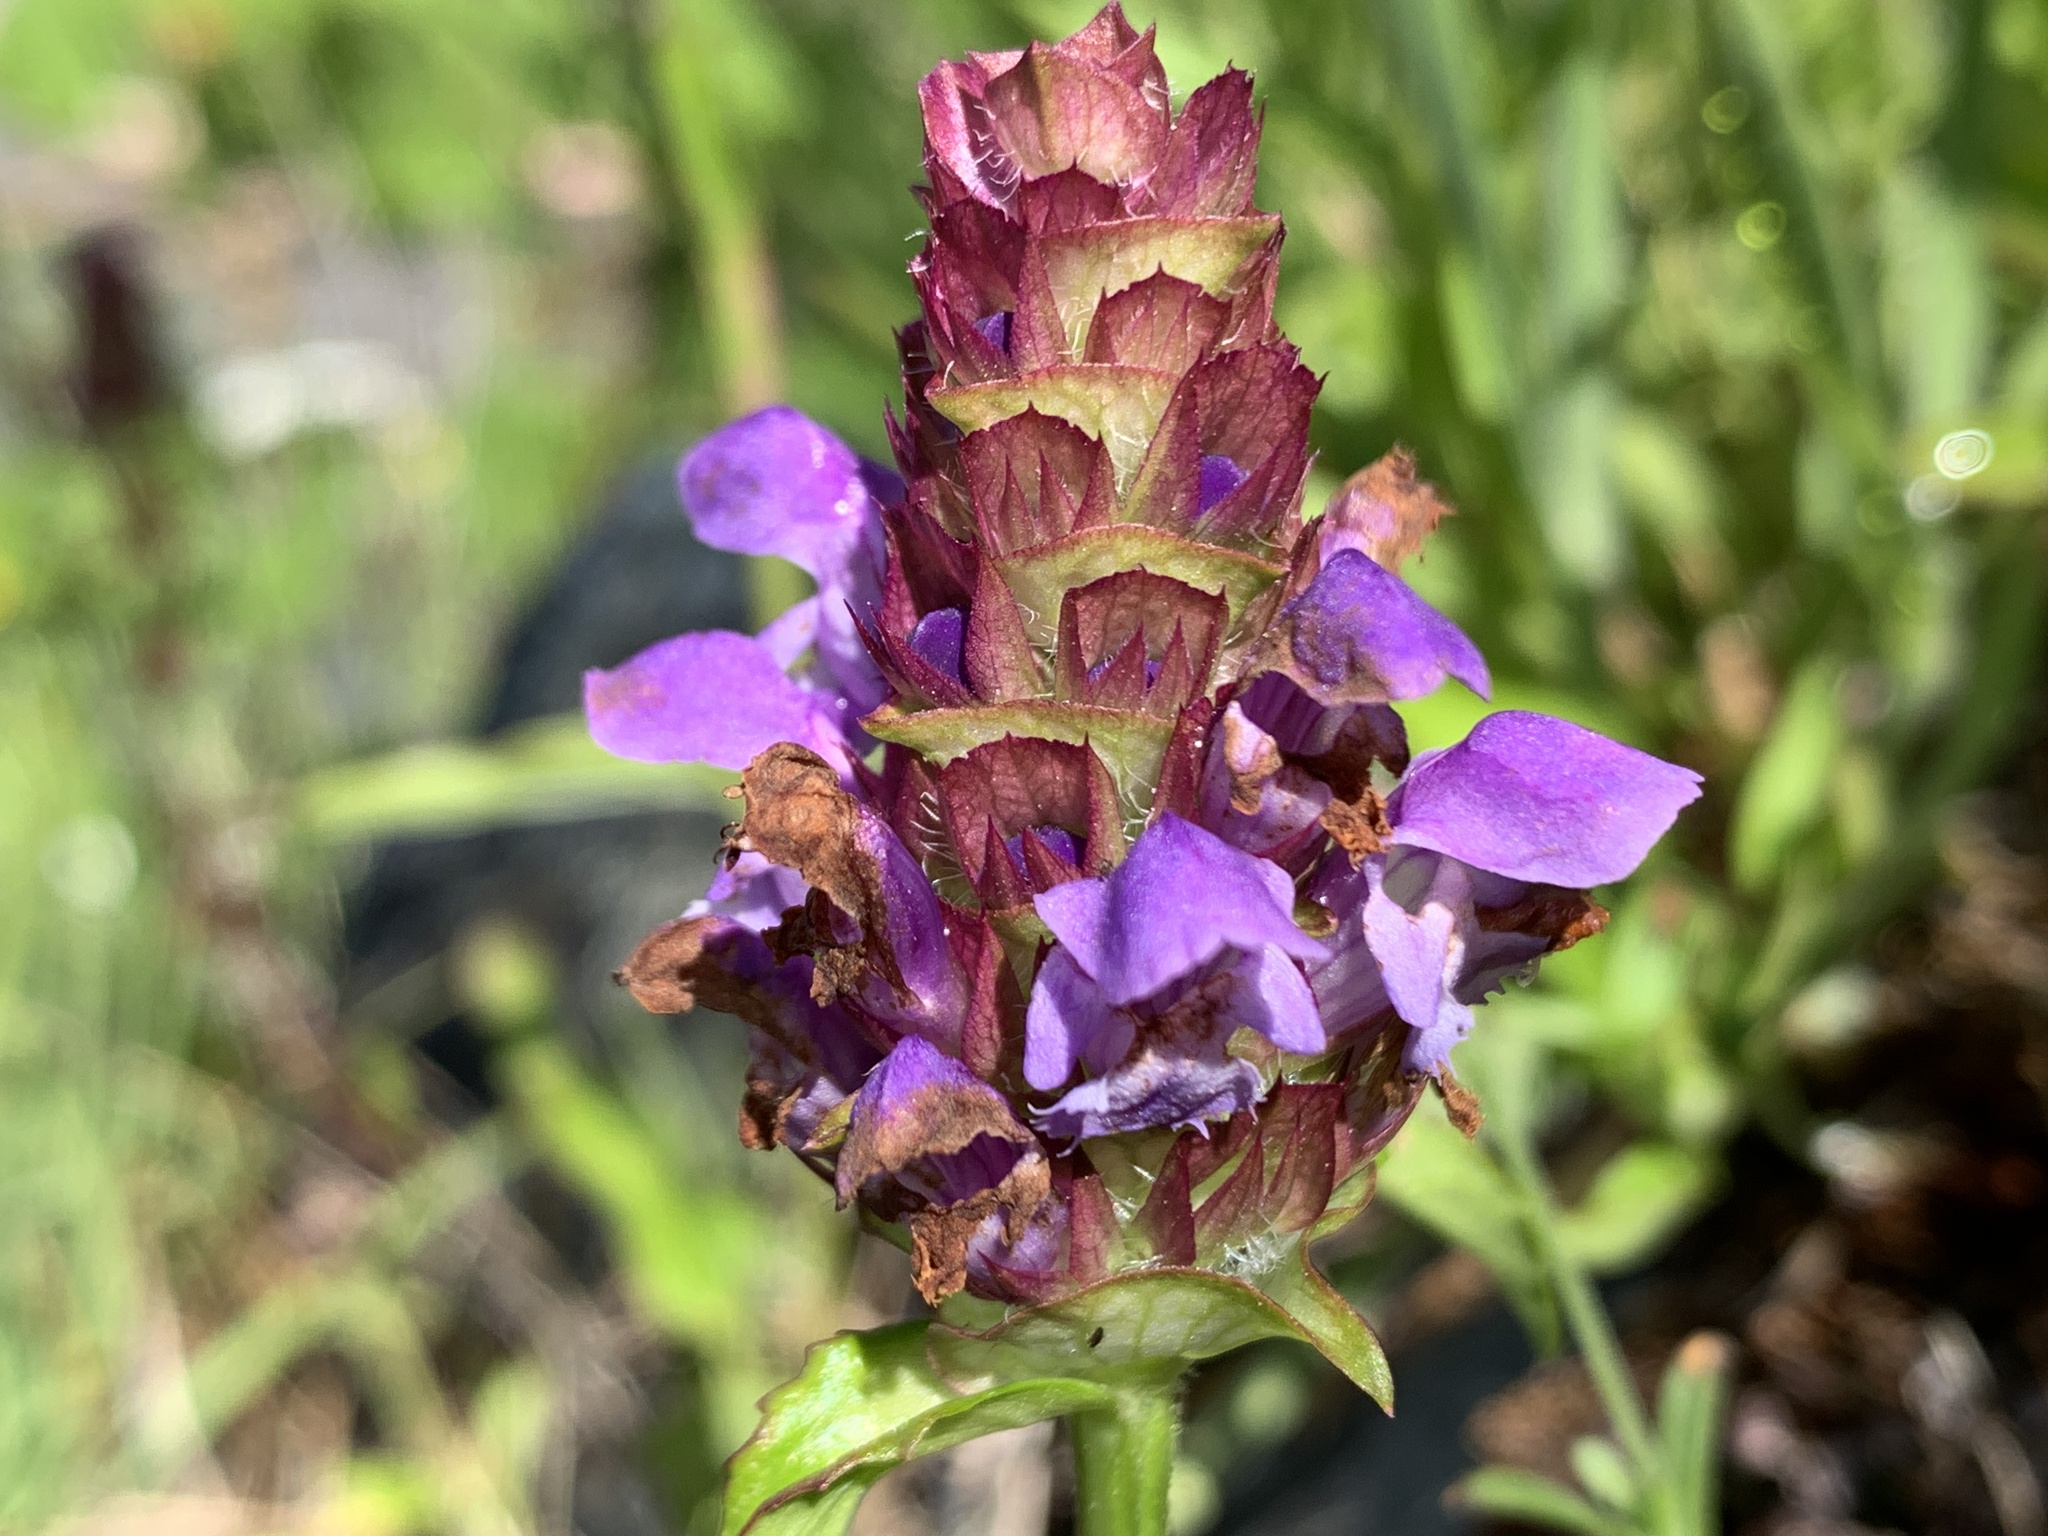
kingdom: Plantae
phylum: Tracheophyta
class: Magnoliopsida
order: Lamiales
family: Lamiaceae
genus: Prunella
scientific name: Prunella vulgaris
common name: Heal-all
